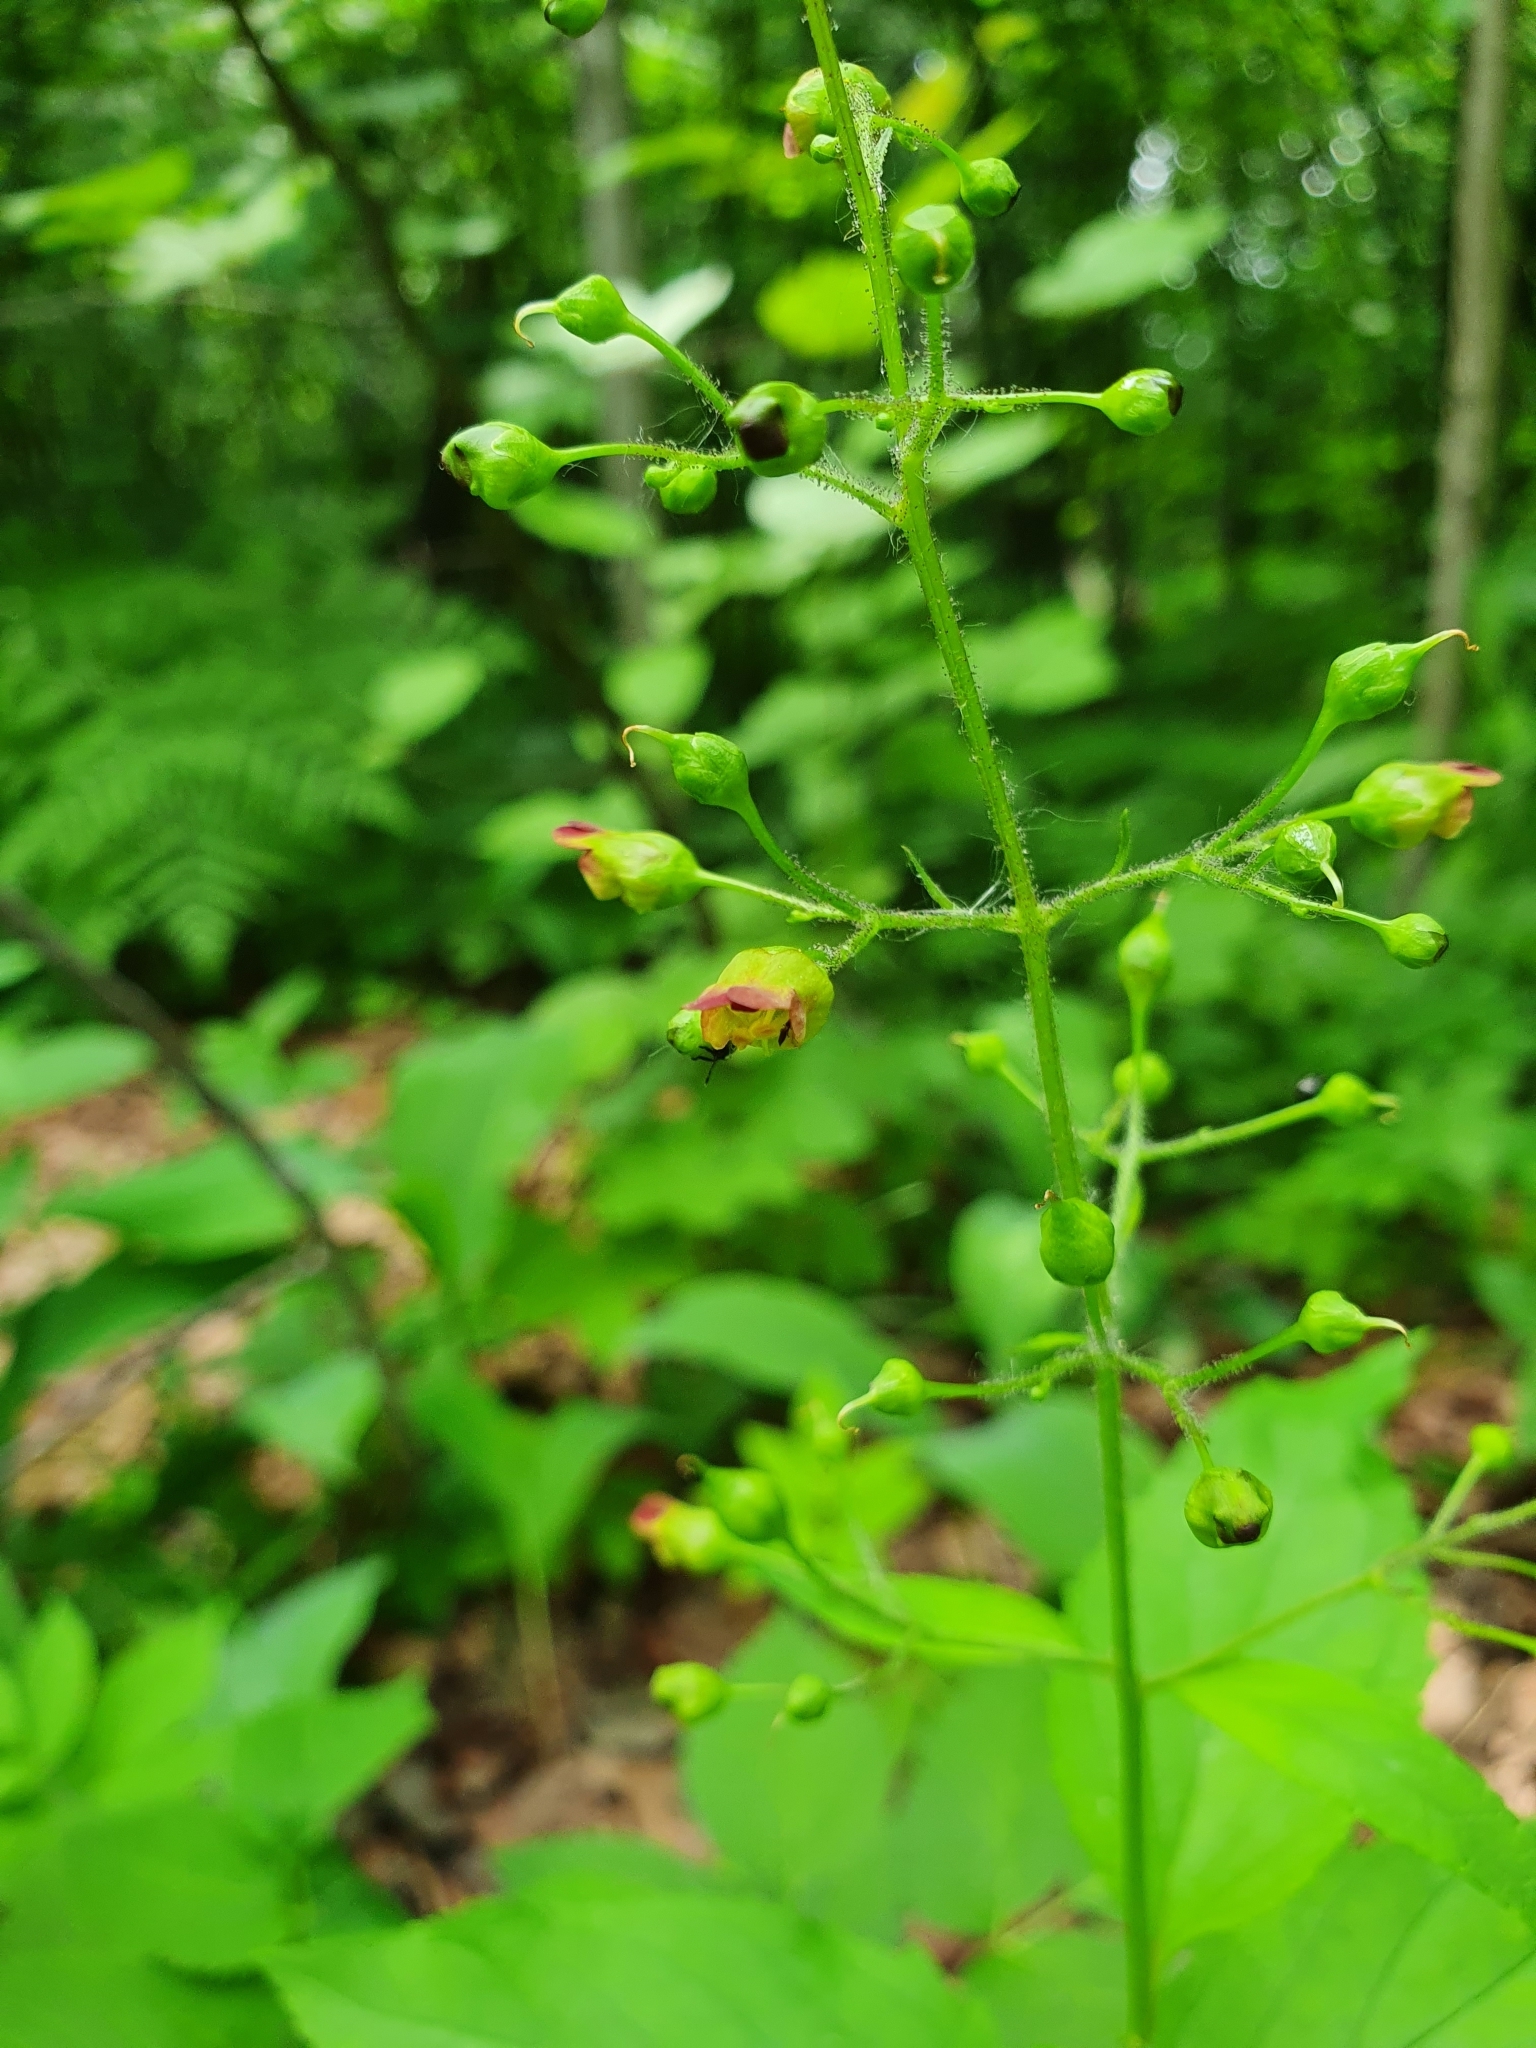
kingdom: Plantae
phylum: Tracheophyta
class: Magnoliopsida
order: Lamiales
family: Scrophulariaceae
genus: Scrophularia
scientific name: Scrophularia nodosa
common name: Common figwort
